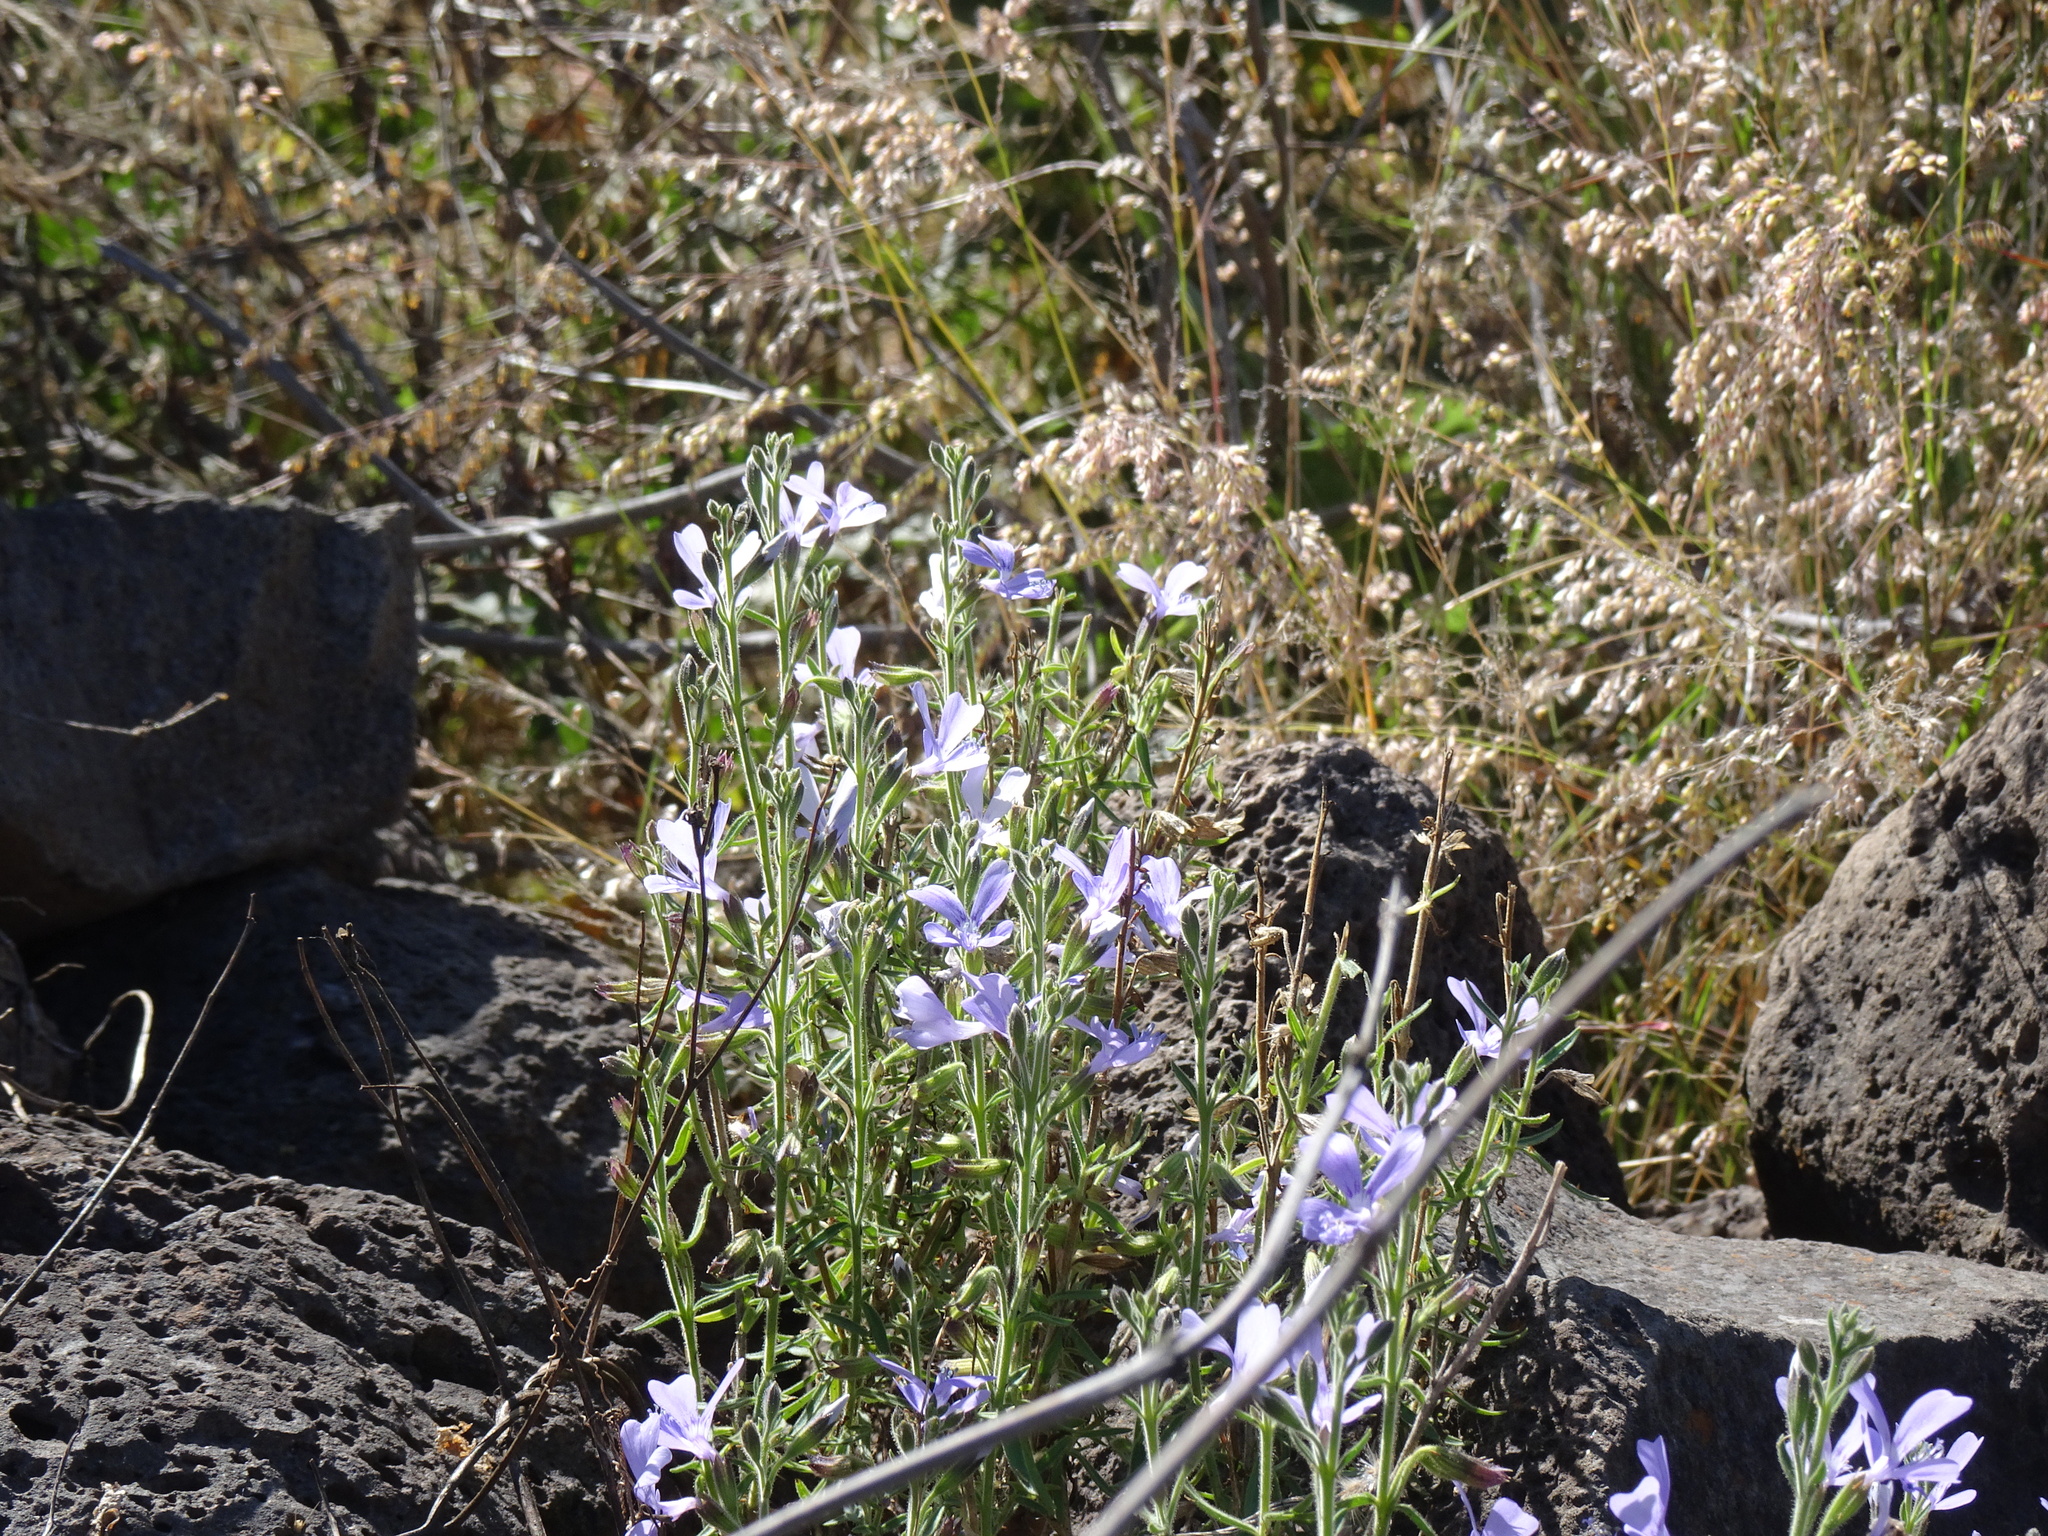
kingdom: Plantae
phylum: Tracheophyta
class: Magnoliopsida
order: Ericales
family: Polemoniaceae
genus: Bonplandia
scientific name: Bonplandia geminiflora
